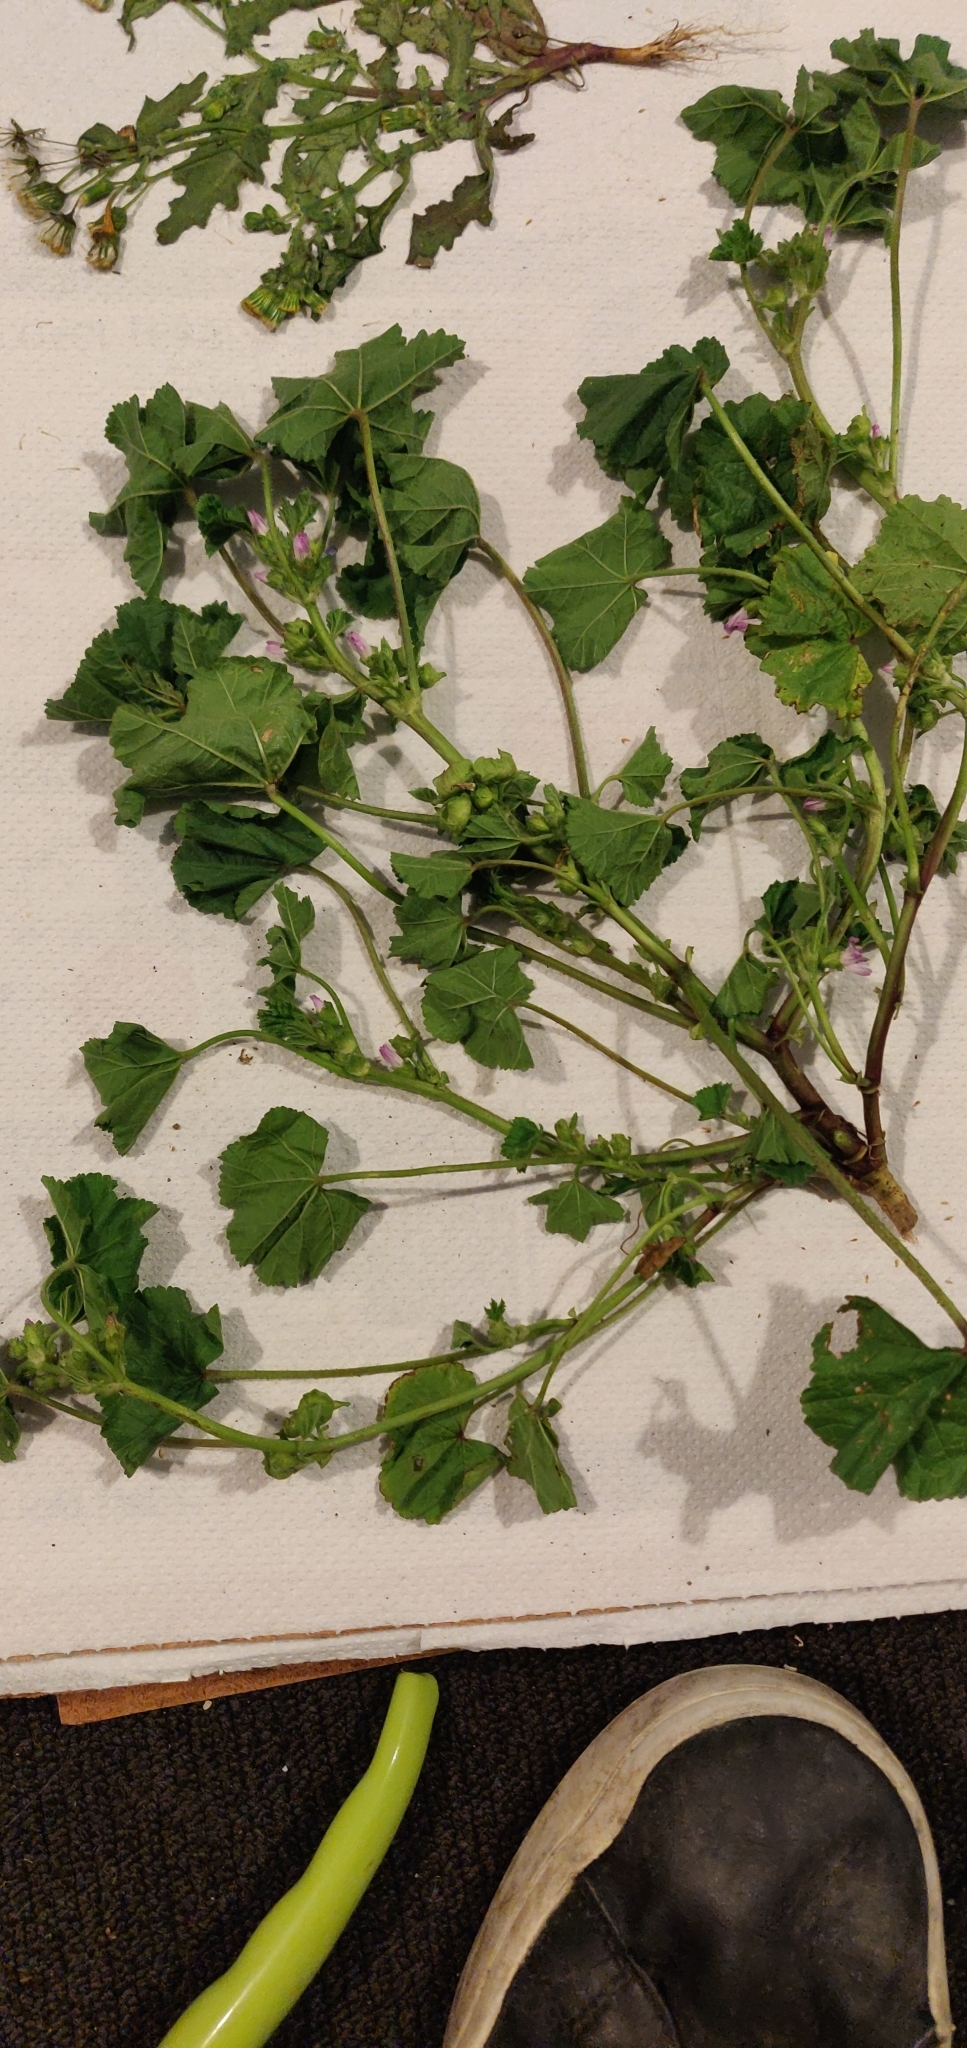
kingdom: Plantae
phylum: Tracheophyta
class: Magnoliopsida
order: Malvales
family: Malvaceae
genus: Malva
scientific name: Malva nicaeensis
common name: French mallow
